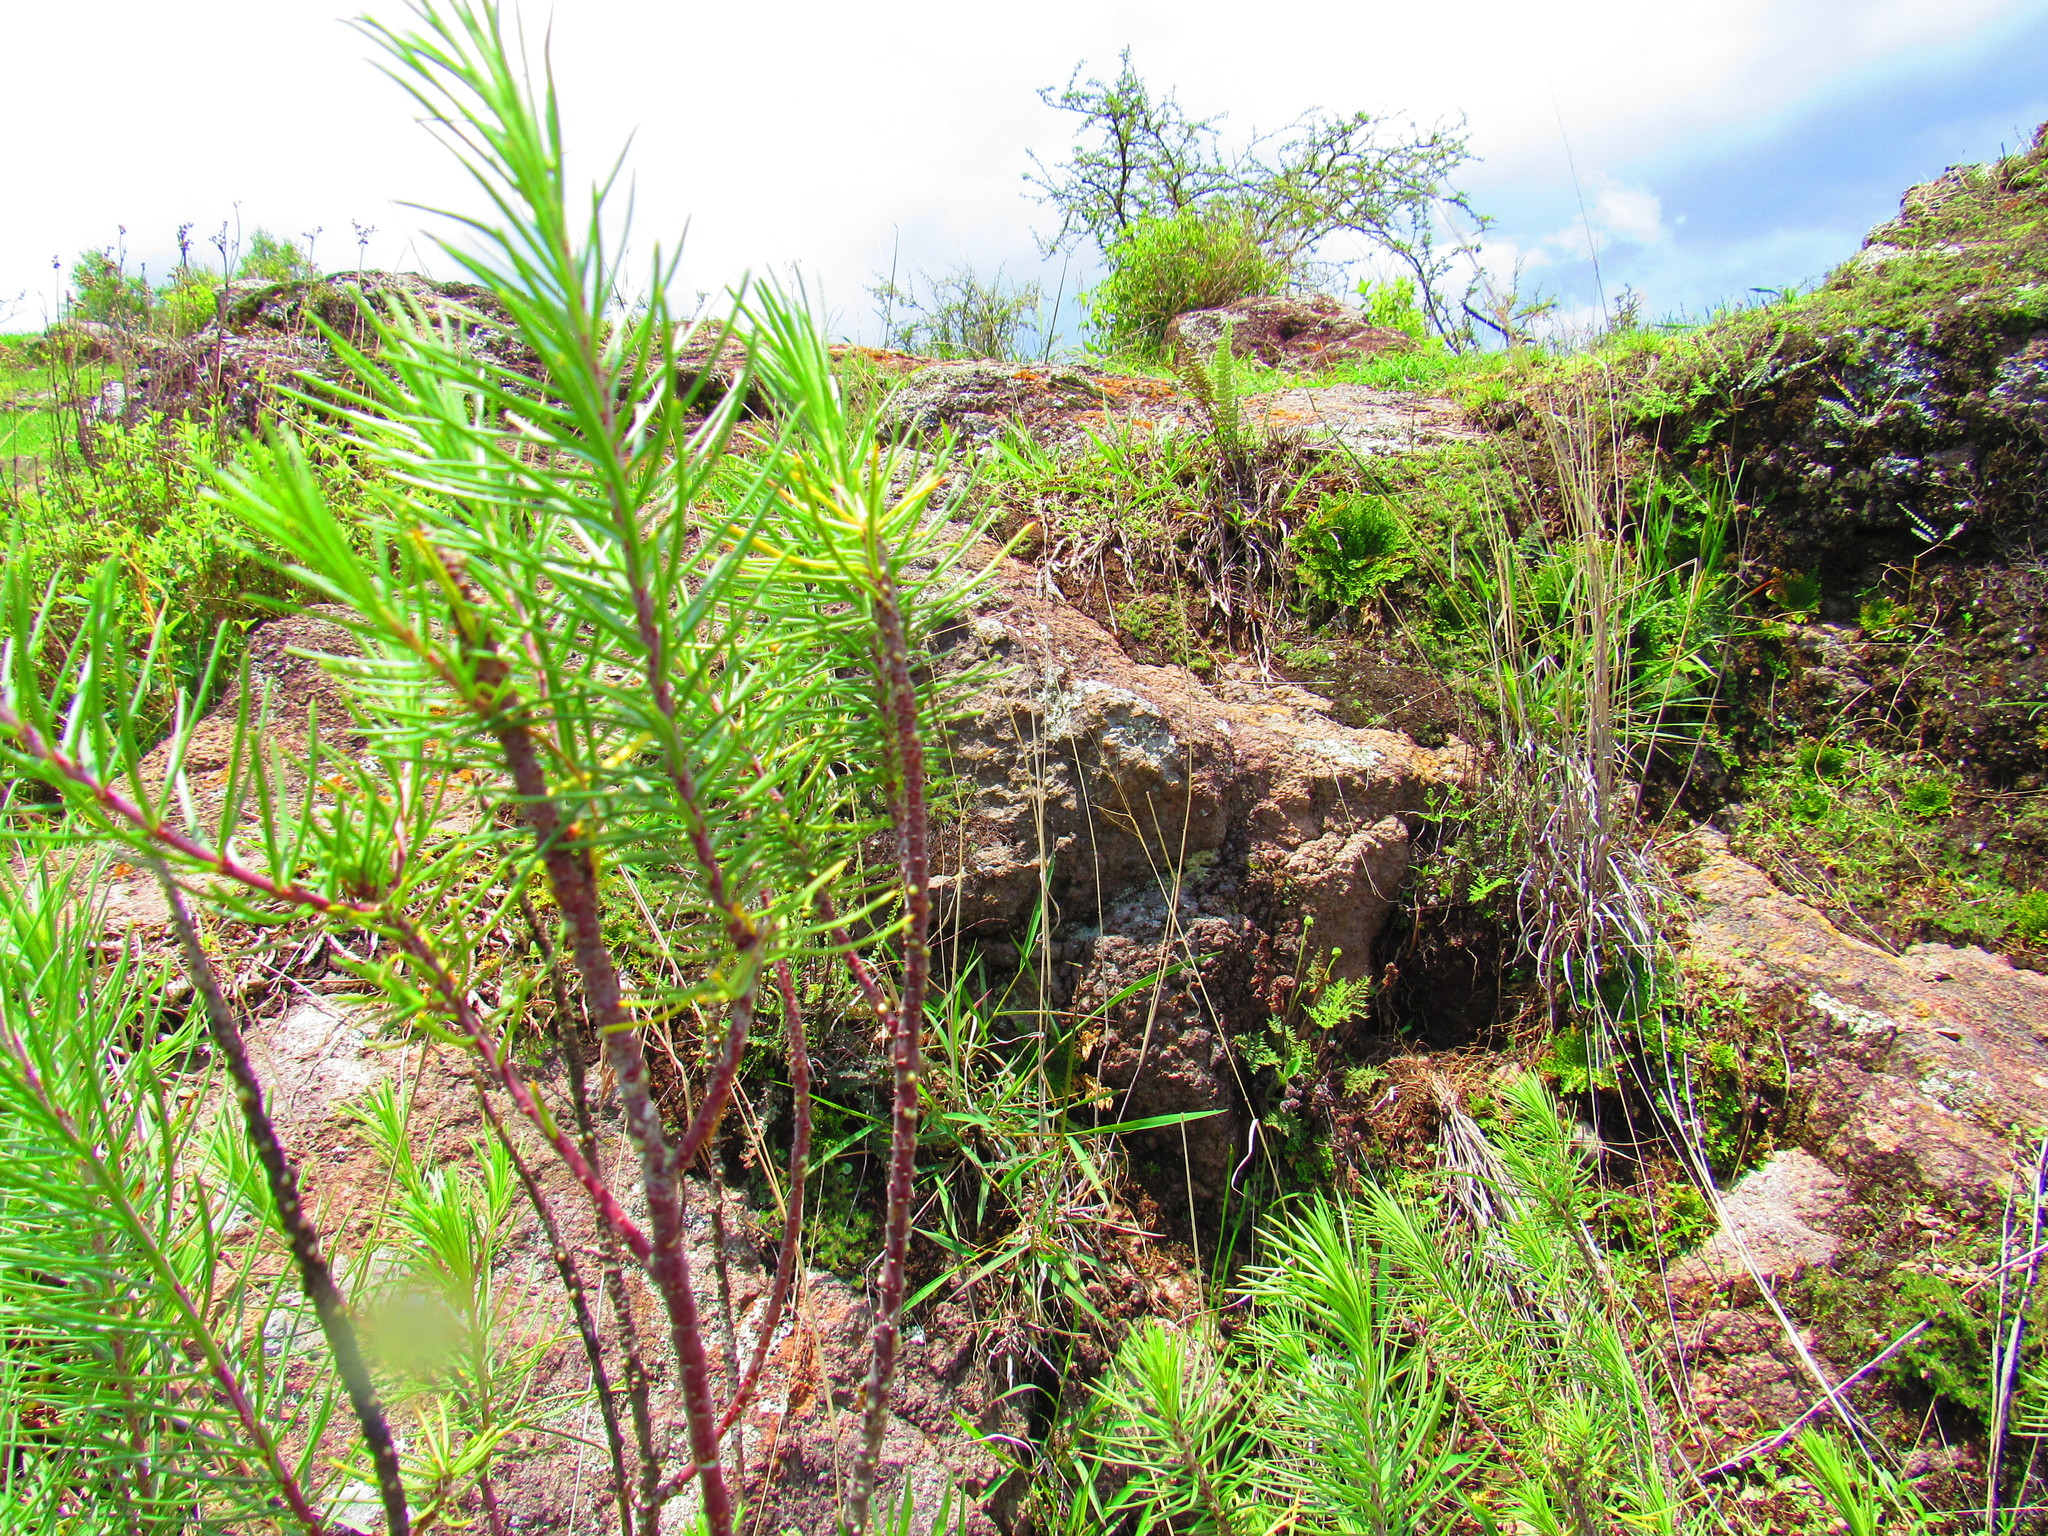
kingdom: Plantae
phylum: Tracheophyta
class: Magnoliopsida
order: Gentianales
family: Apocynaceae
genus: Asclepias
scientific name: Asclepias linaria
